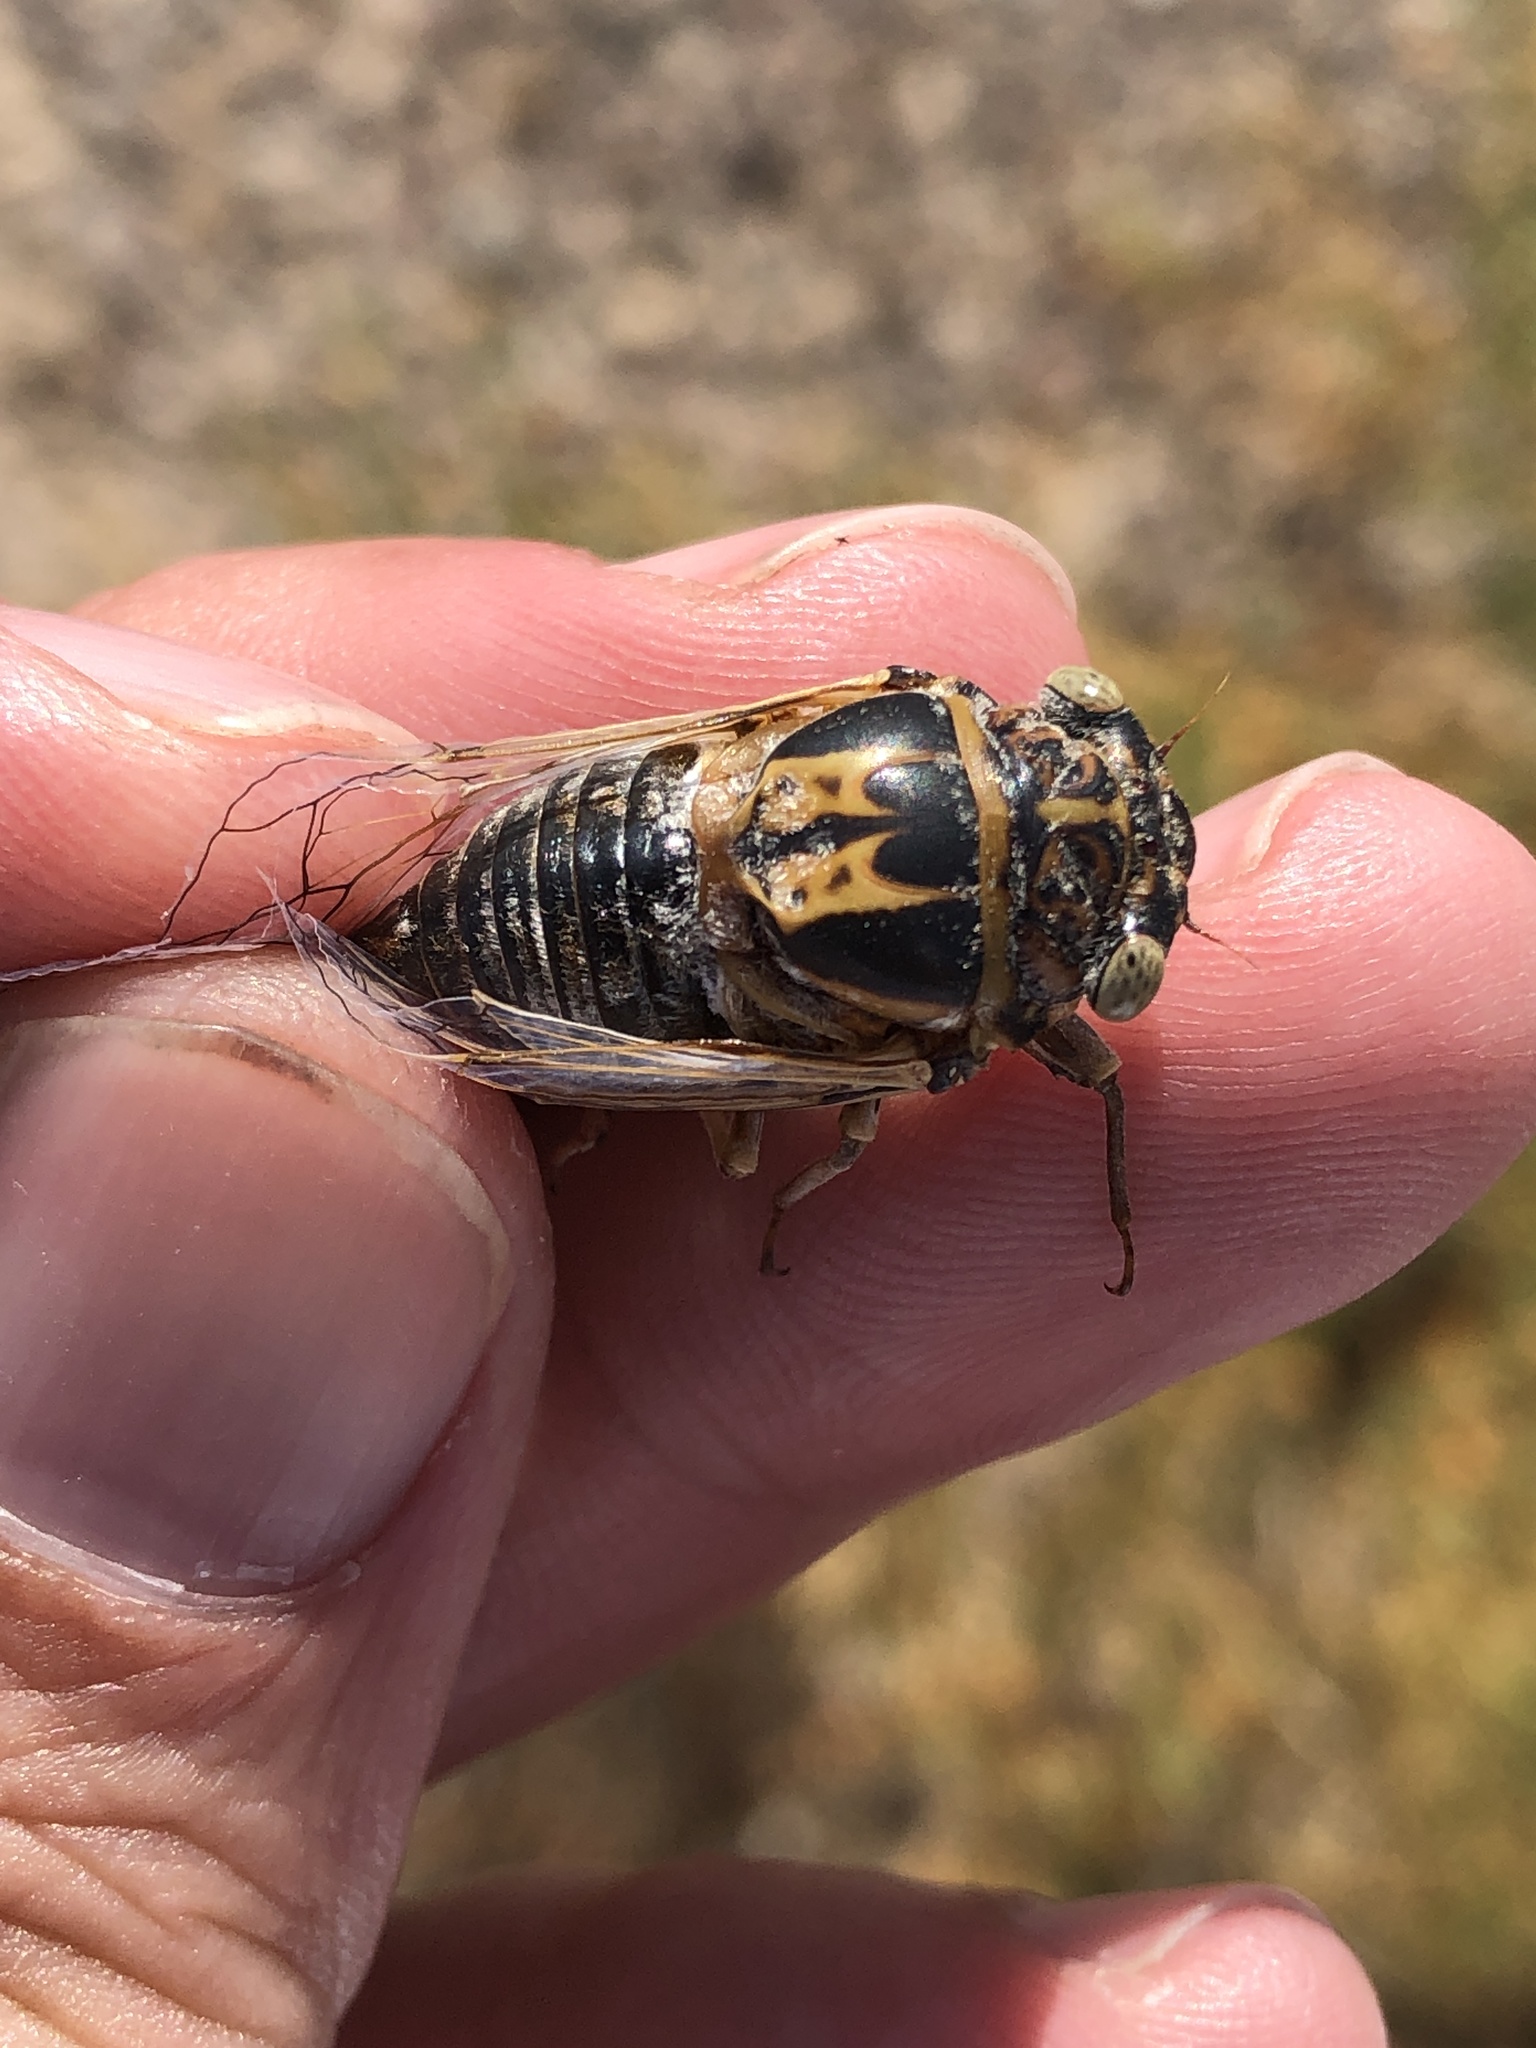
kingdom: Animalia
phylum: Arthropoda
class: Insecta
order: Hemiptera
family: Cicadidae
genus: Diceroprocta
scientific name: Diceroprocta eugraphica
